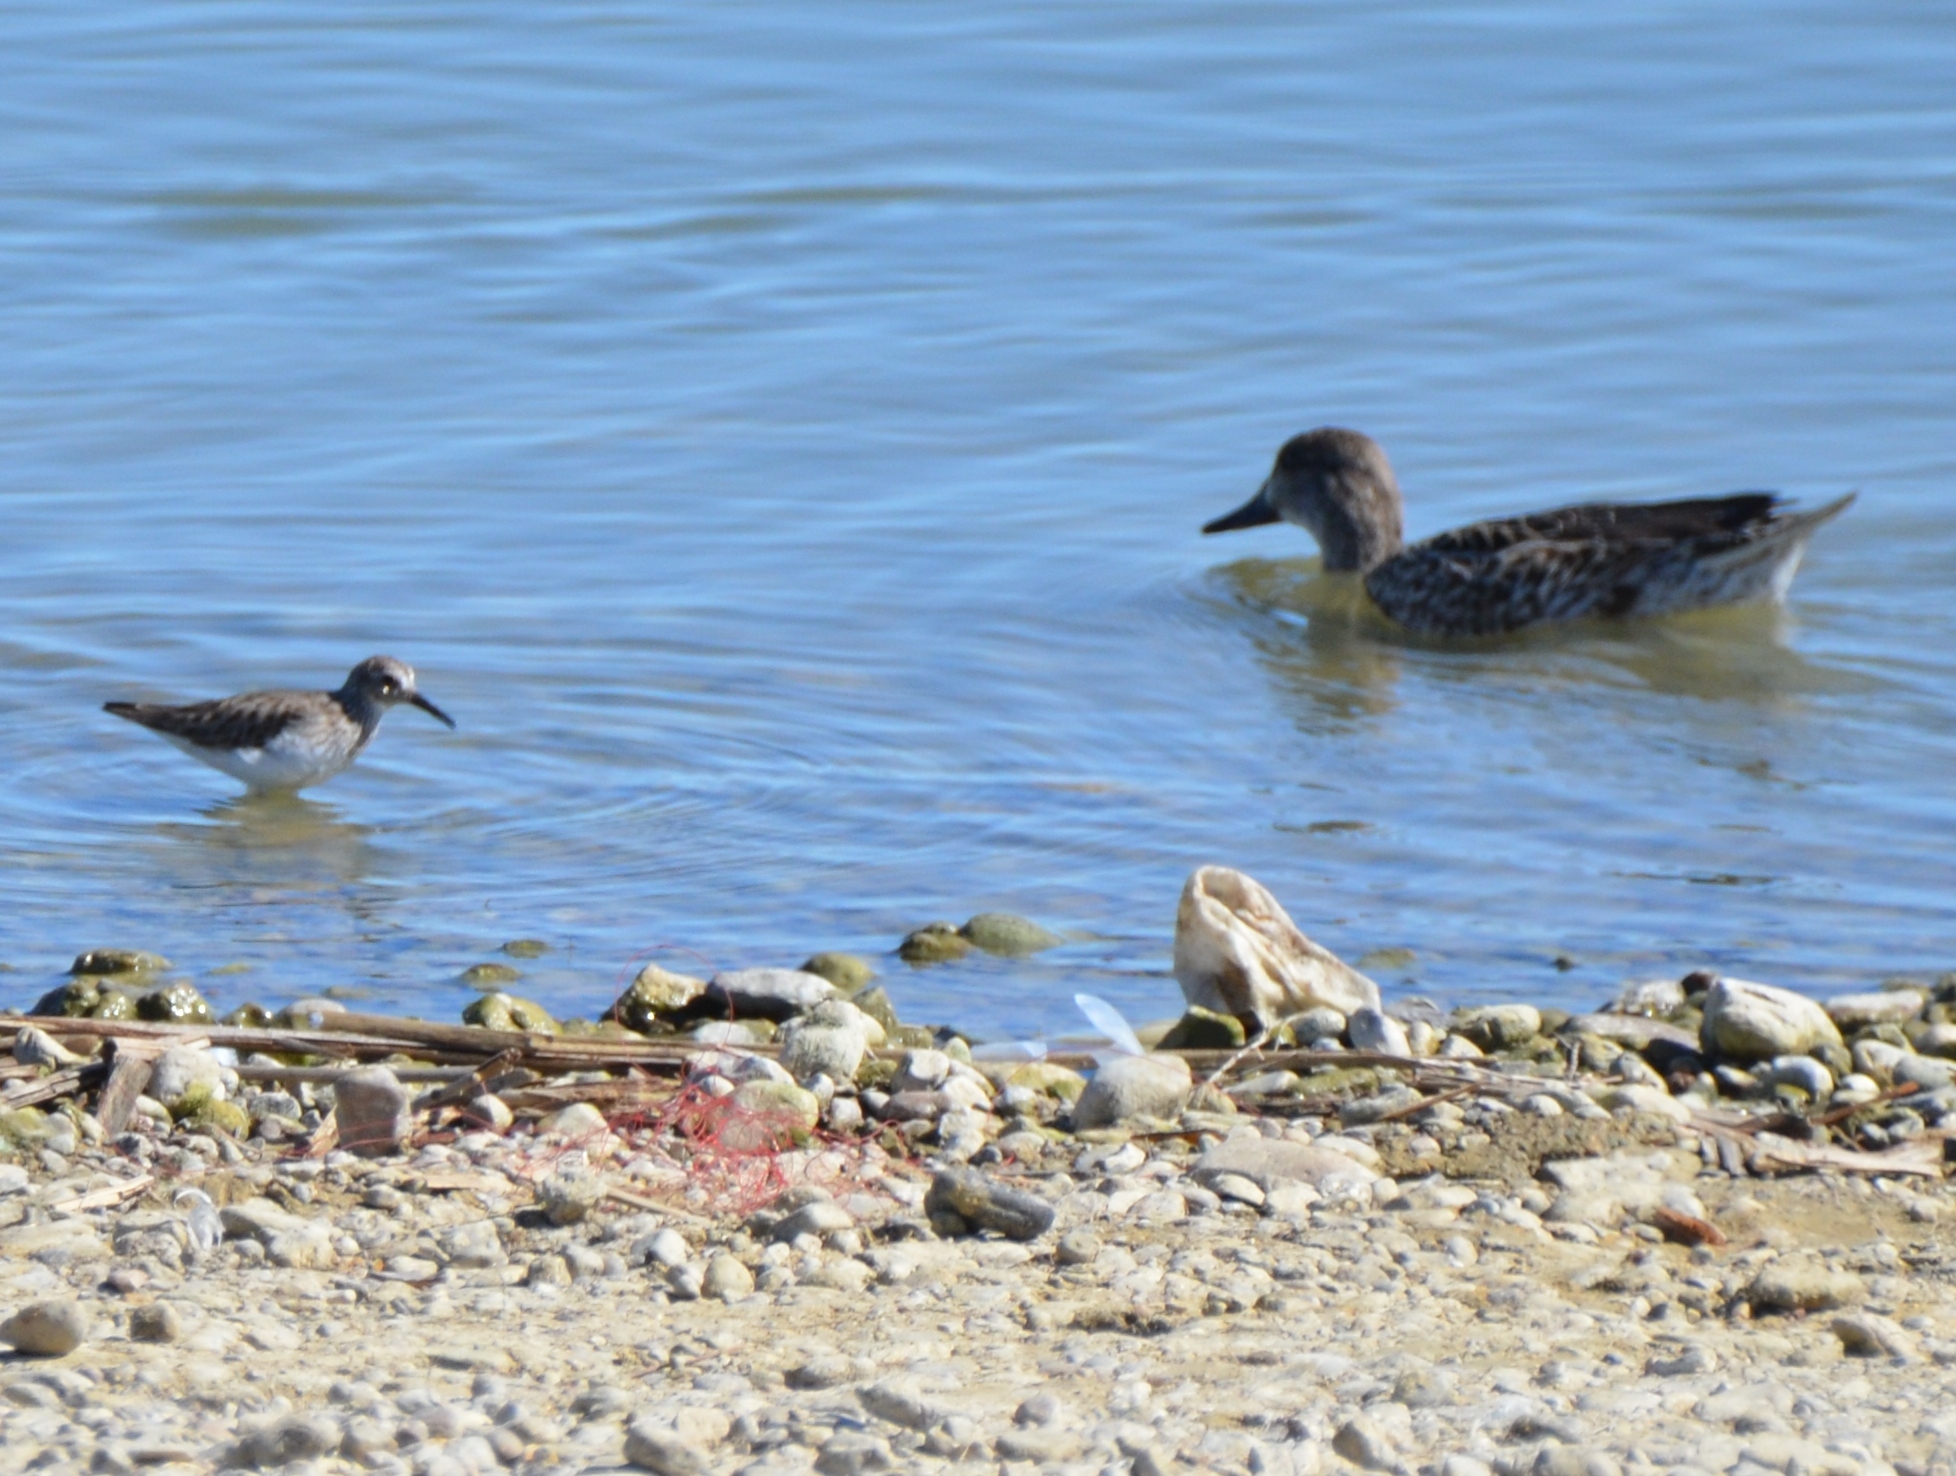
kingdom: Animalia
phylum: Chordata
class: Aves
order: Charadriiformes
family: Scolopacidae
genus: Calidris
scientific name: Calidris minutilla
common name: Least sandpiper
